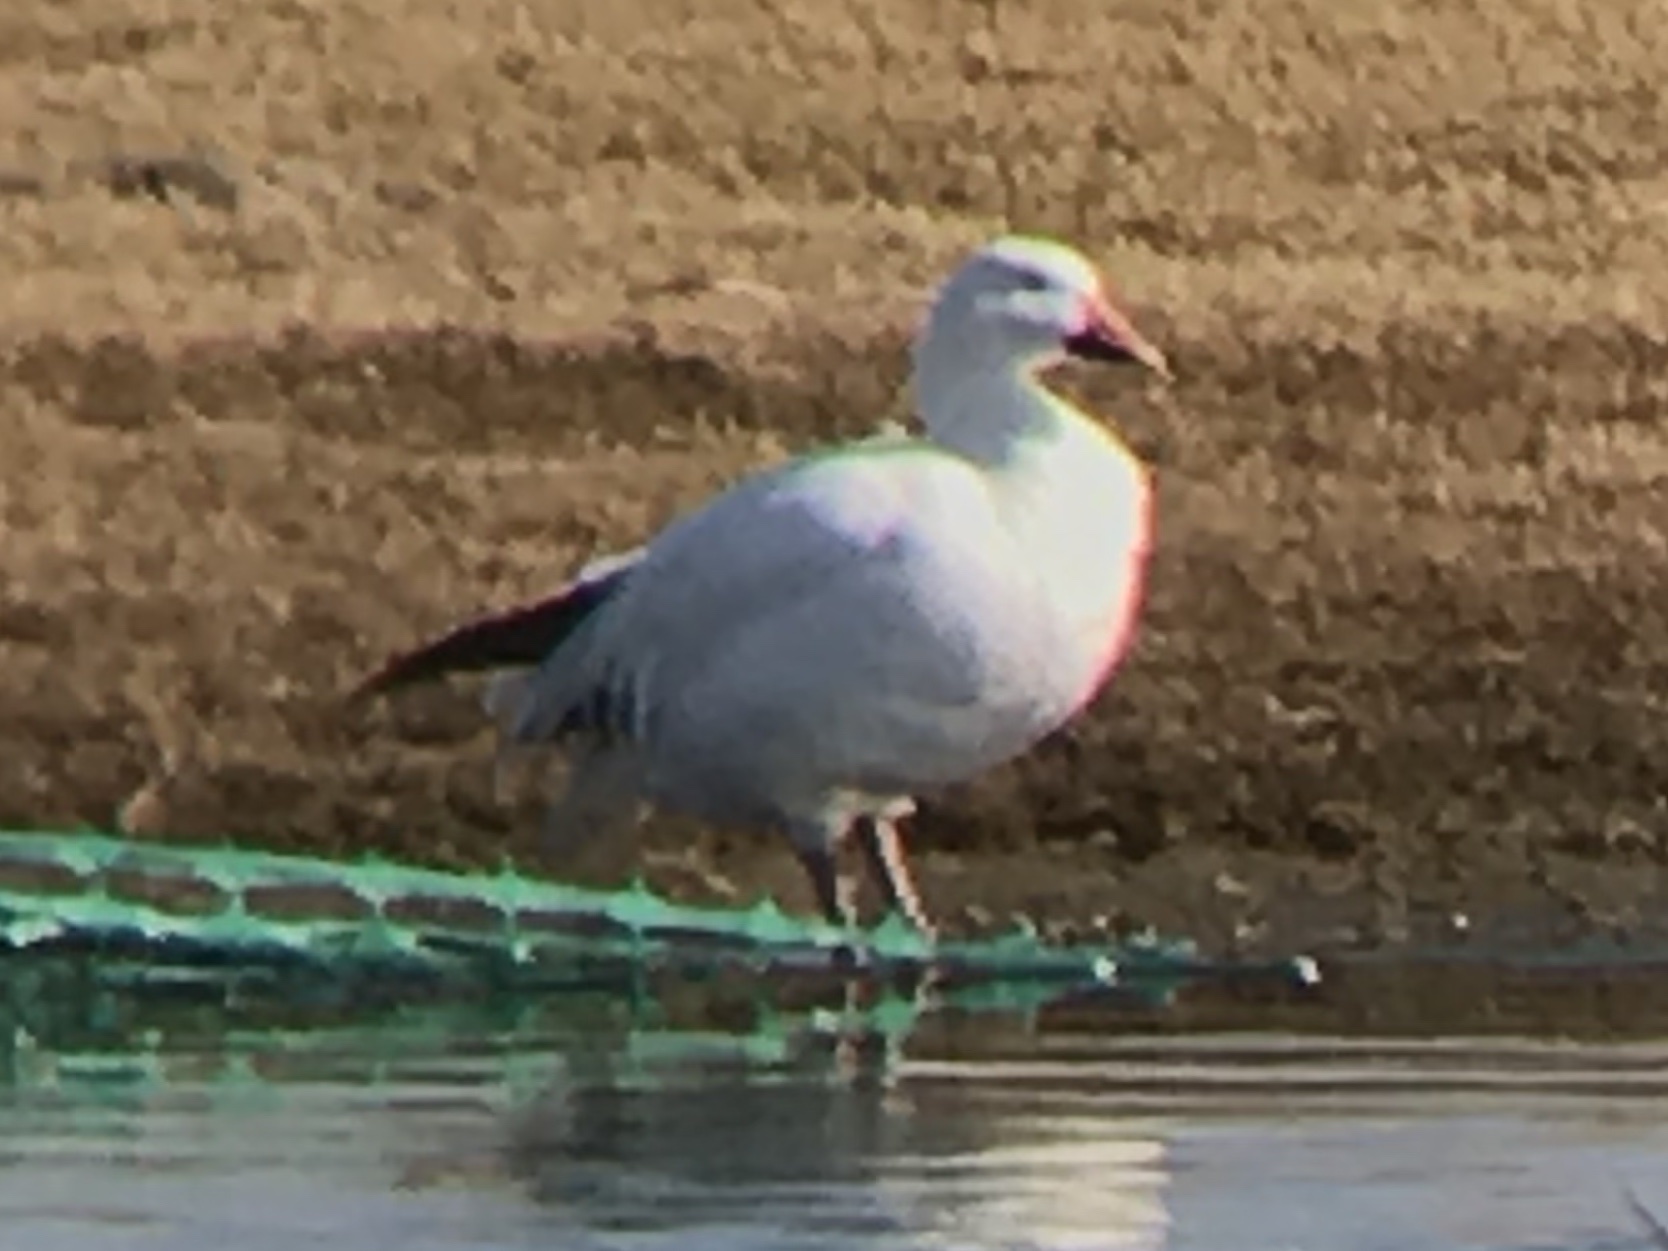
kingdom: Animalia
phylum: Chordata
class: Aves
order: Anseriformes
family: Anatidae
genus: Anser
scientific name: Anser caerulescens
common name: Snow goose
